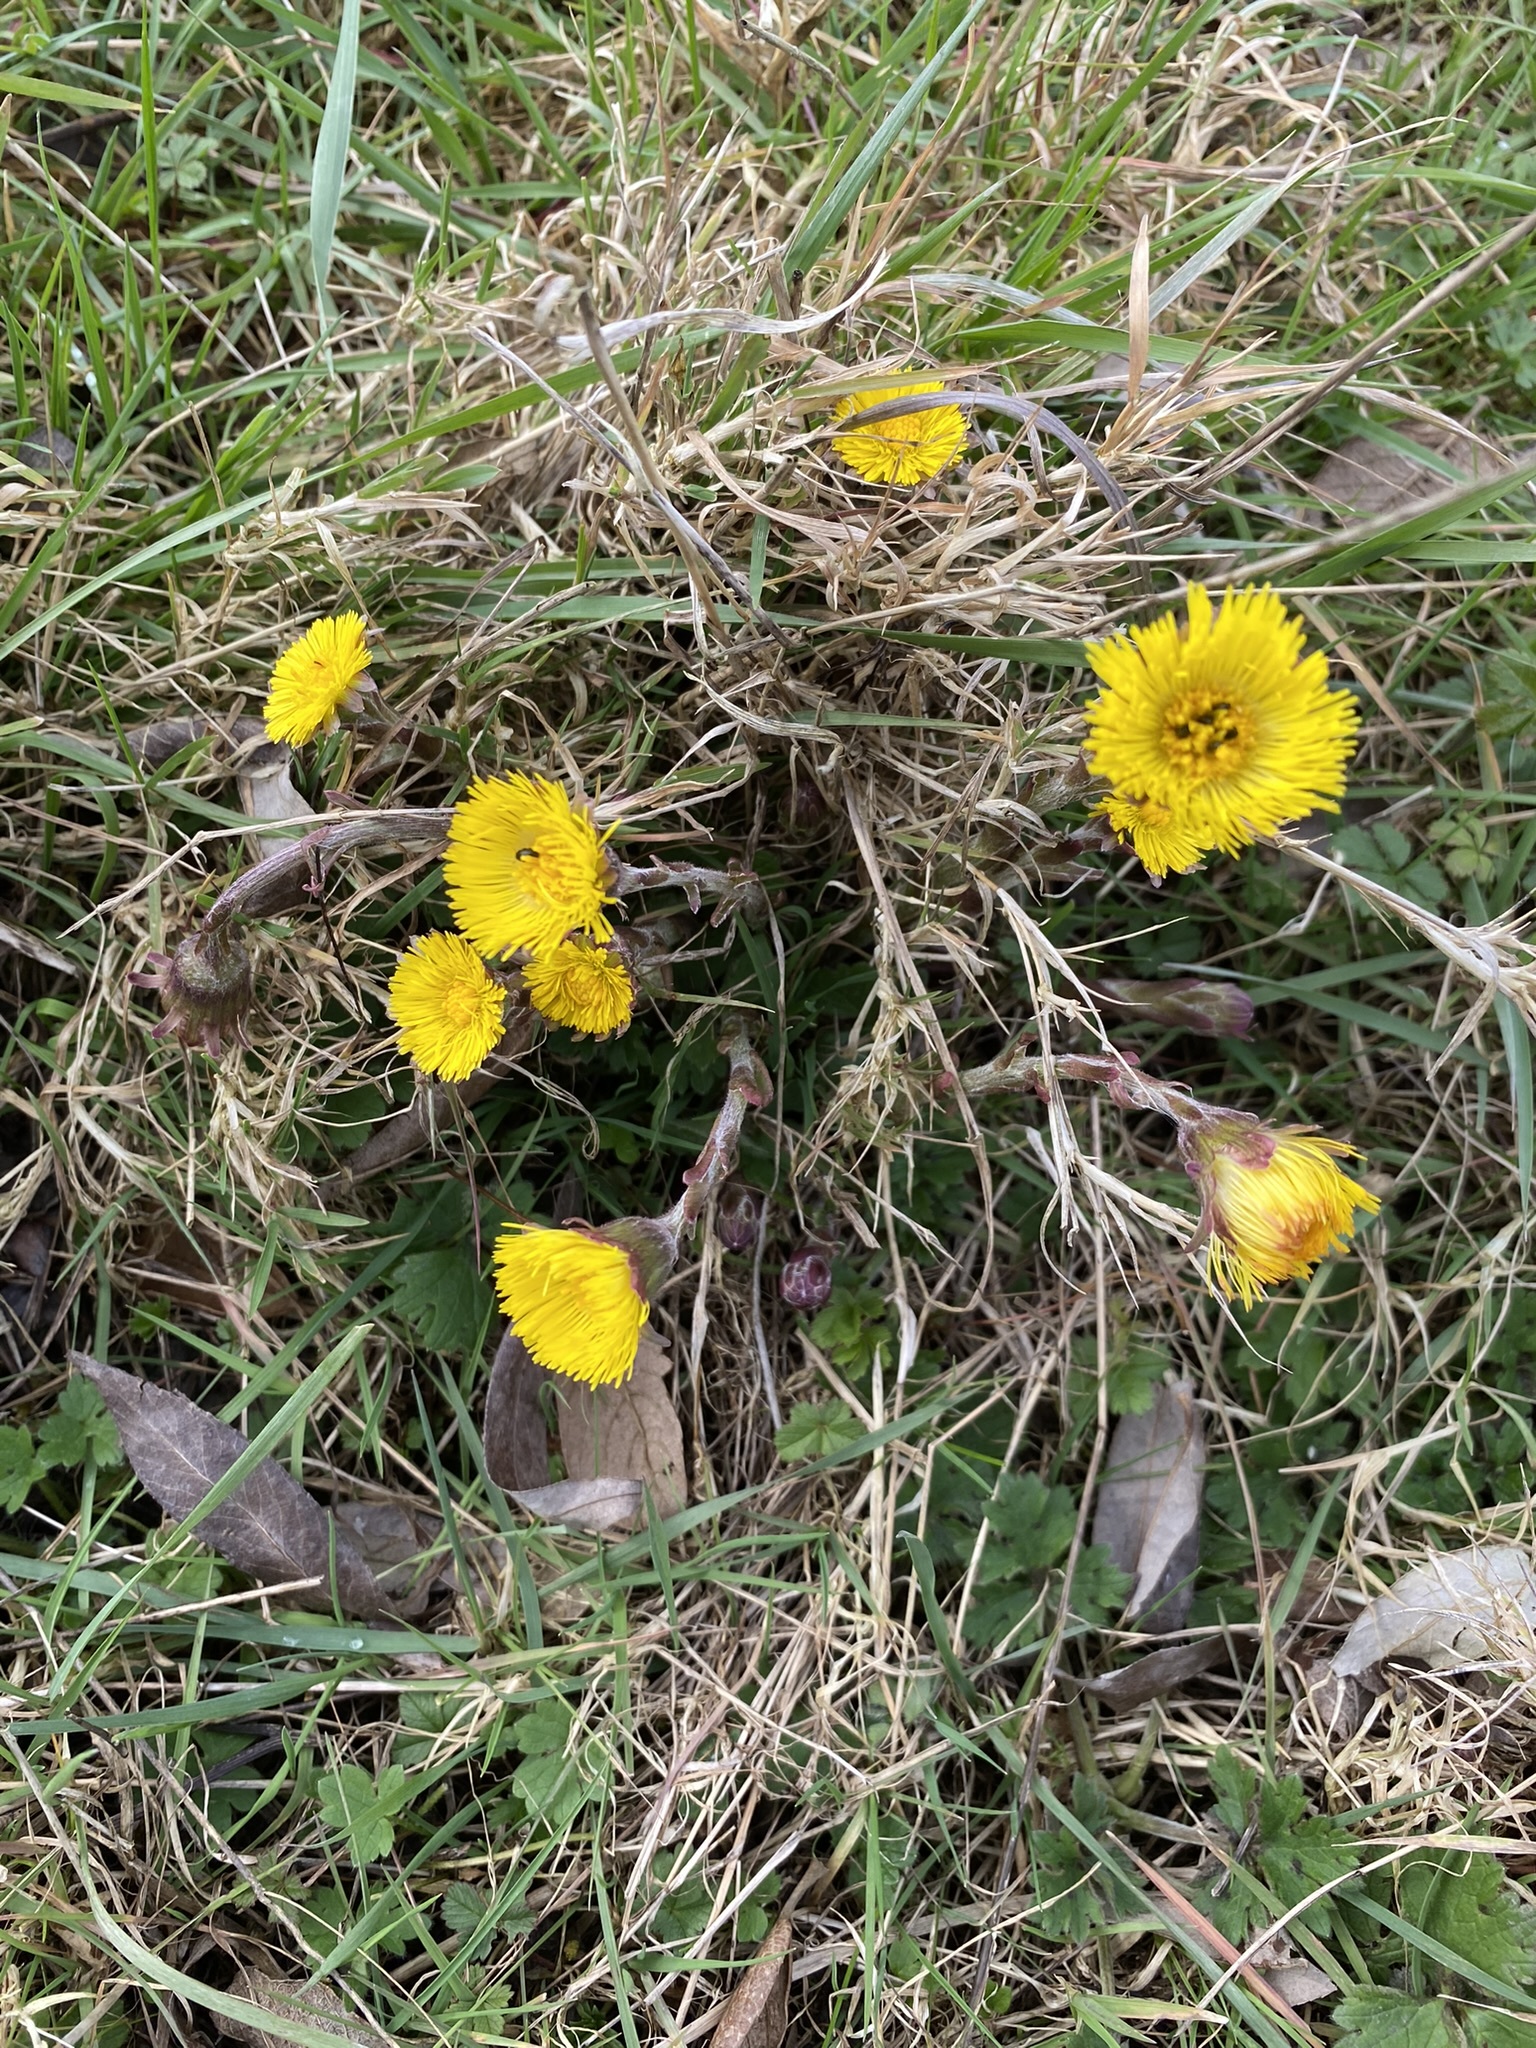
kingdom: Plantae
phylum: Tracheophyta
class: Magnoliopsida
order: Asterales
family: Asteraceae
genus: Tussilago
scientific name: Tussilago farfara
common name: Coltsfoot
